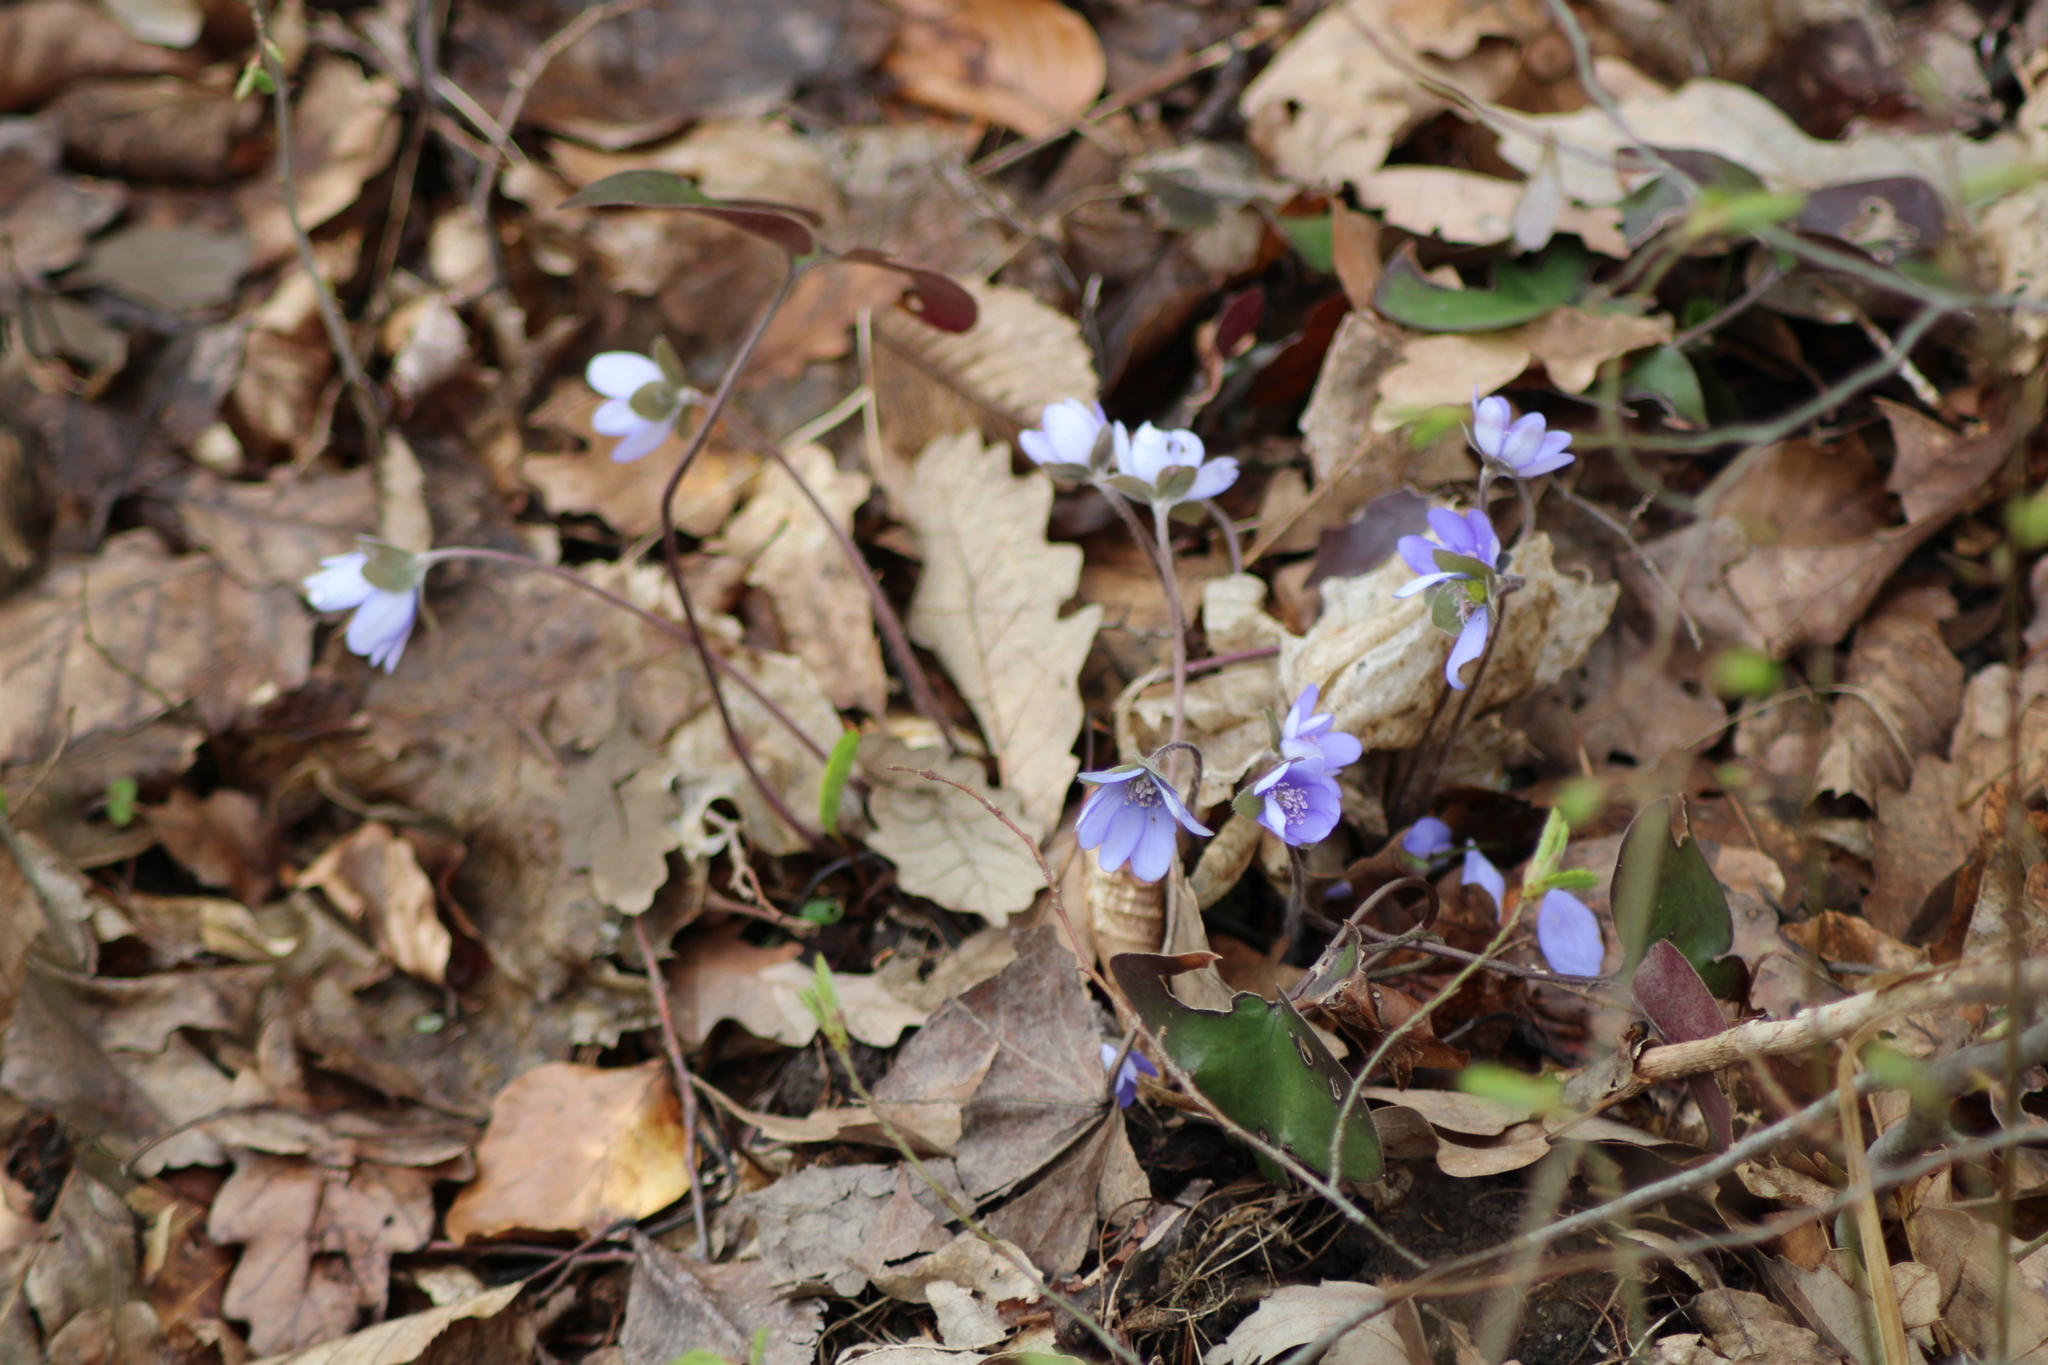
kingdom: Plantae
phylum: Tracheophyta
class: Magnoliopsida
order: Ranunculales
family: Ranunculaceae
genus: Hepatica
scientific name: Hepatica nobilis
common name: Liverleaf
